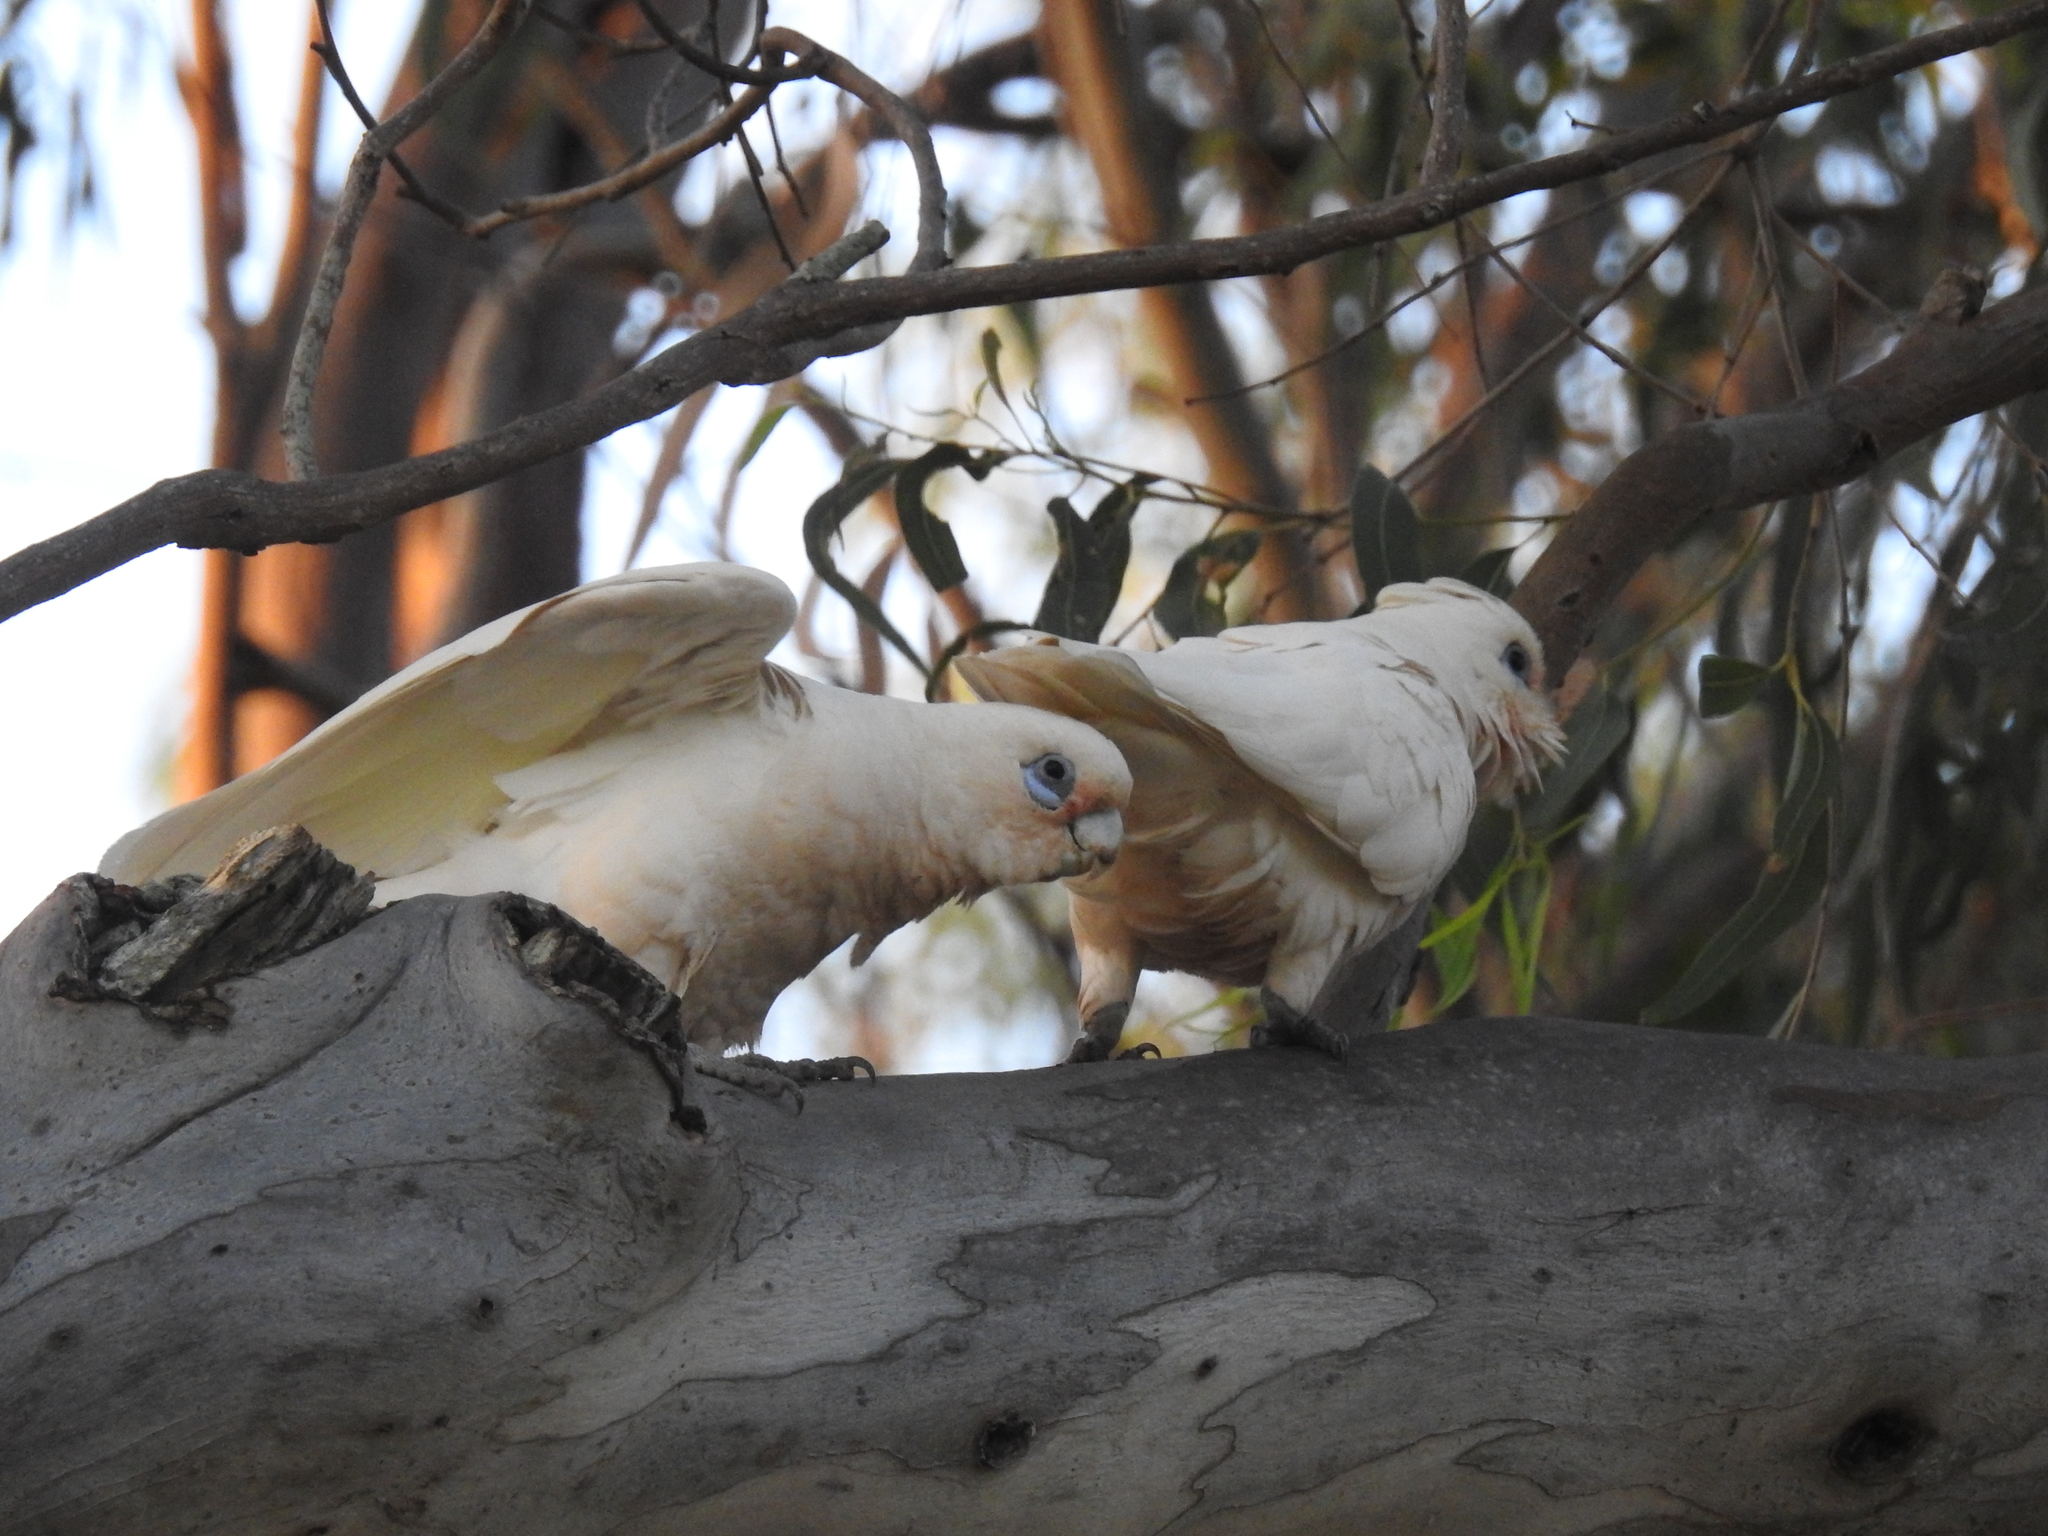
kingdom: Animalia
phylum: Chordata
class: Aves
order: Psittaciformes
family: Psittacidae
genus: Cacatua
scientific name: Cacatua sanguinea
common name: Little corella
